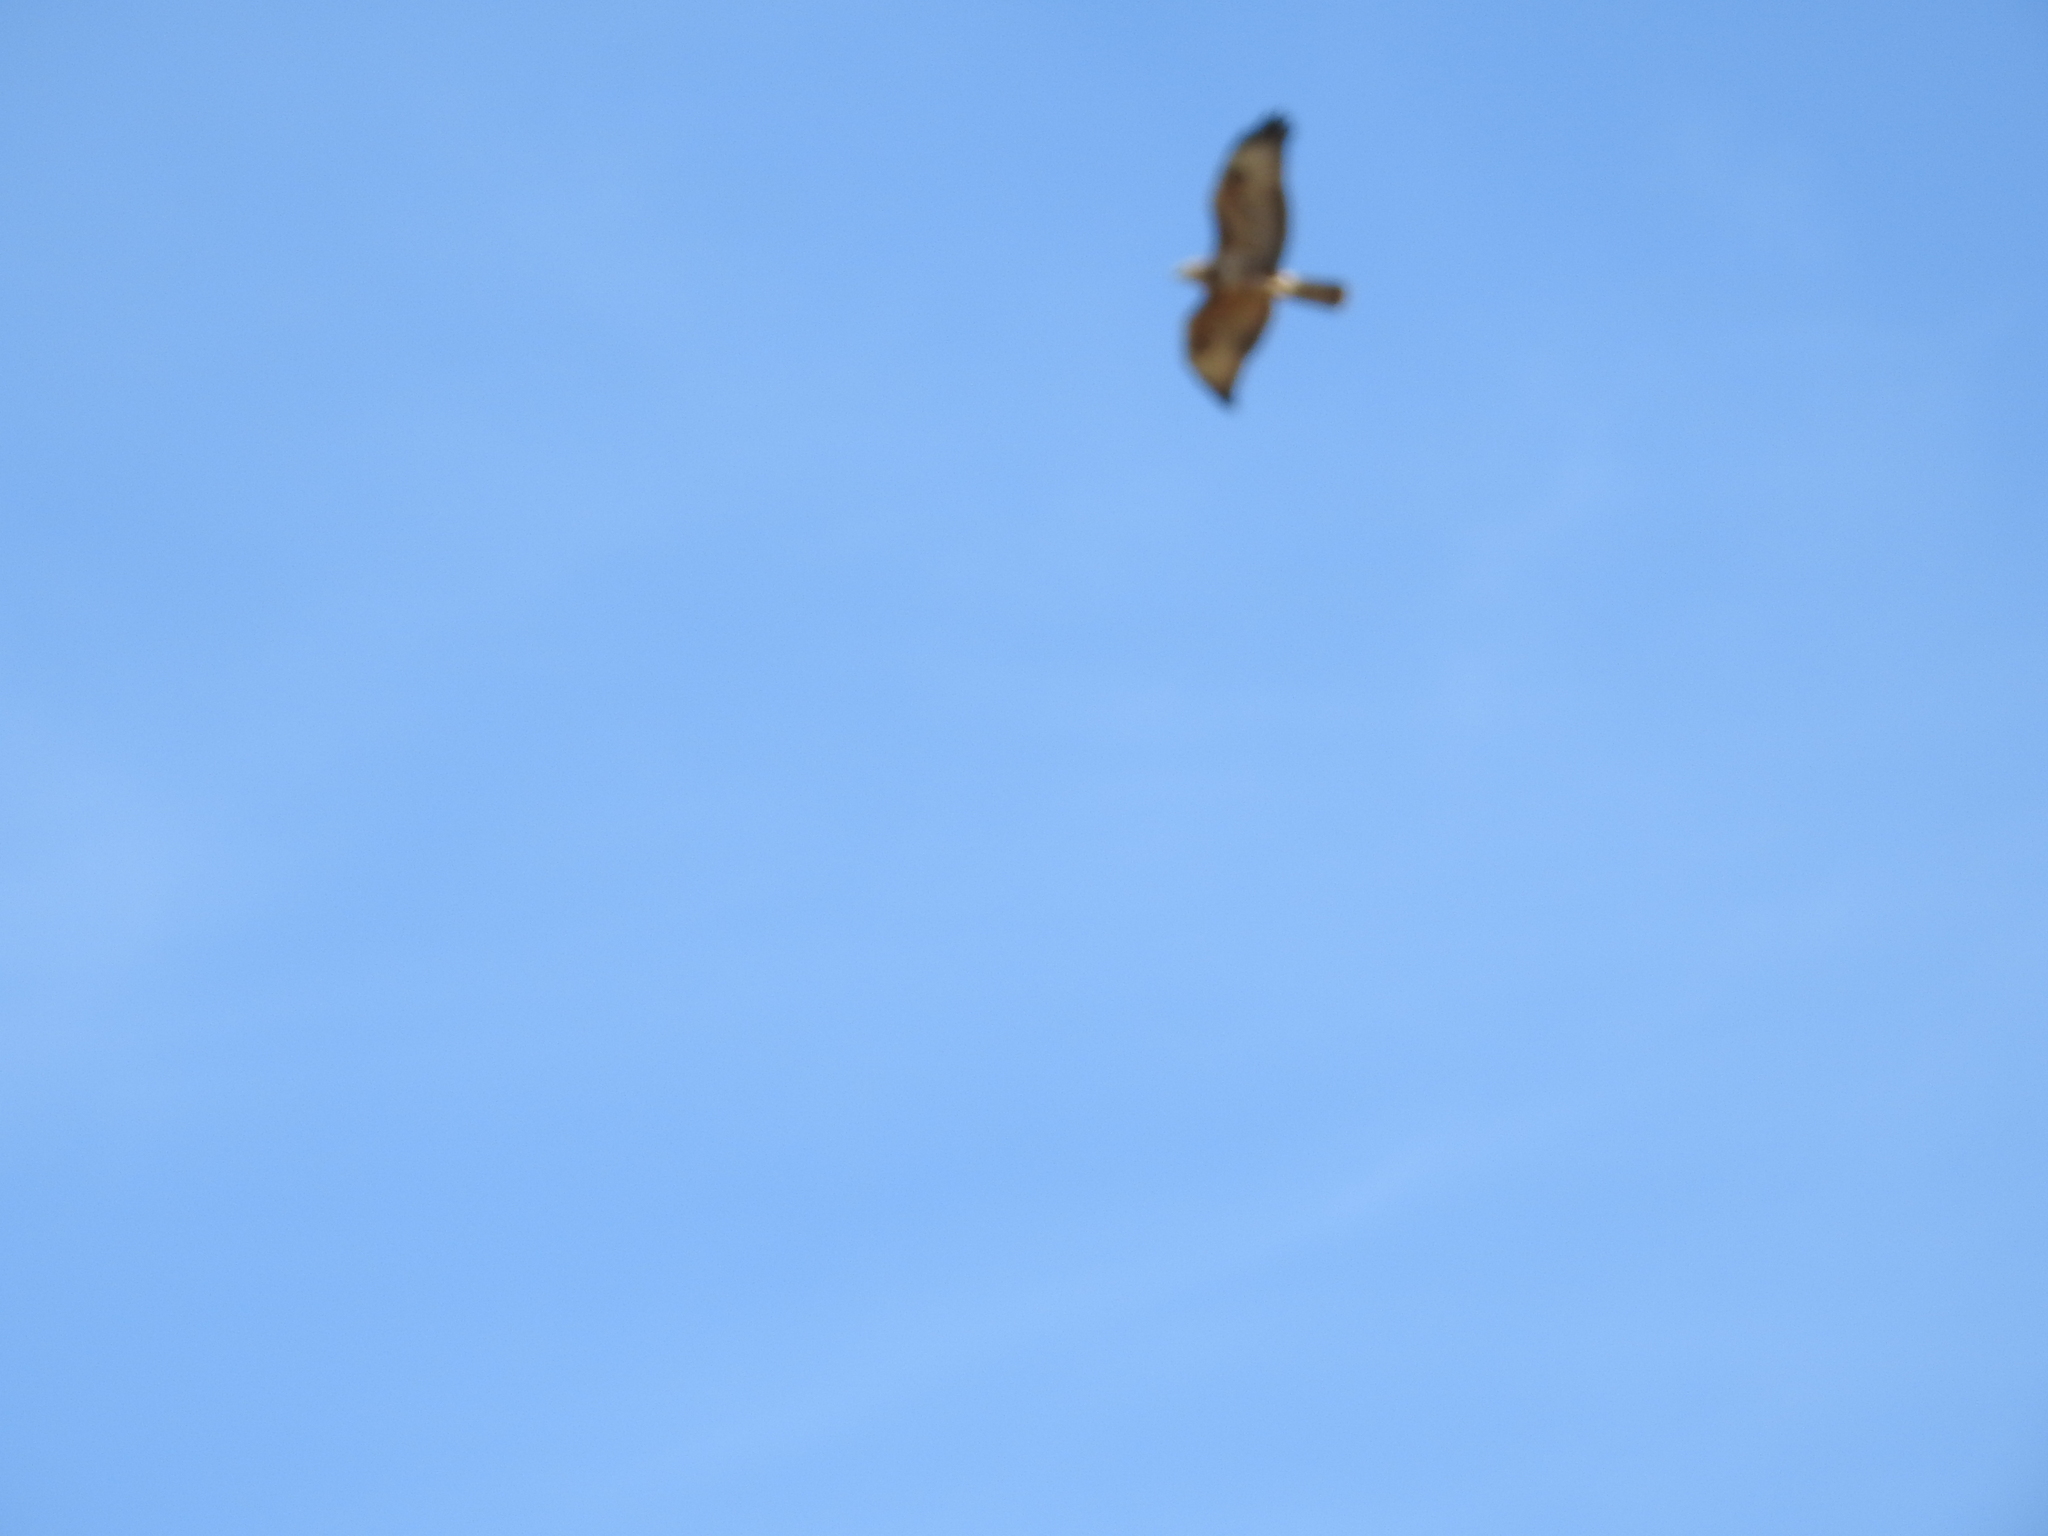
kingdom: Animalia
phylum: Chordata
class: Aves
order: Accipitriformes
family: Accipitridae
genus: Buteo
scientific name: Buteo buteo
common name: Common buzzard
